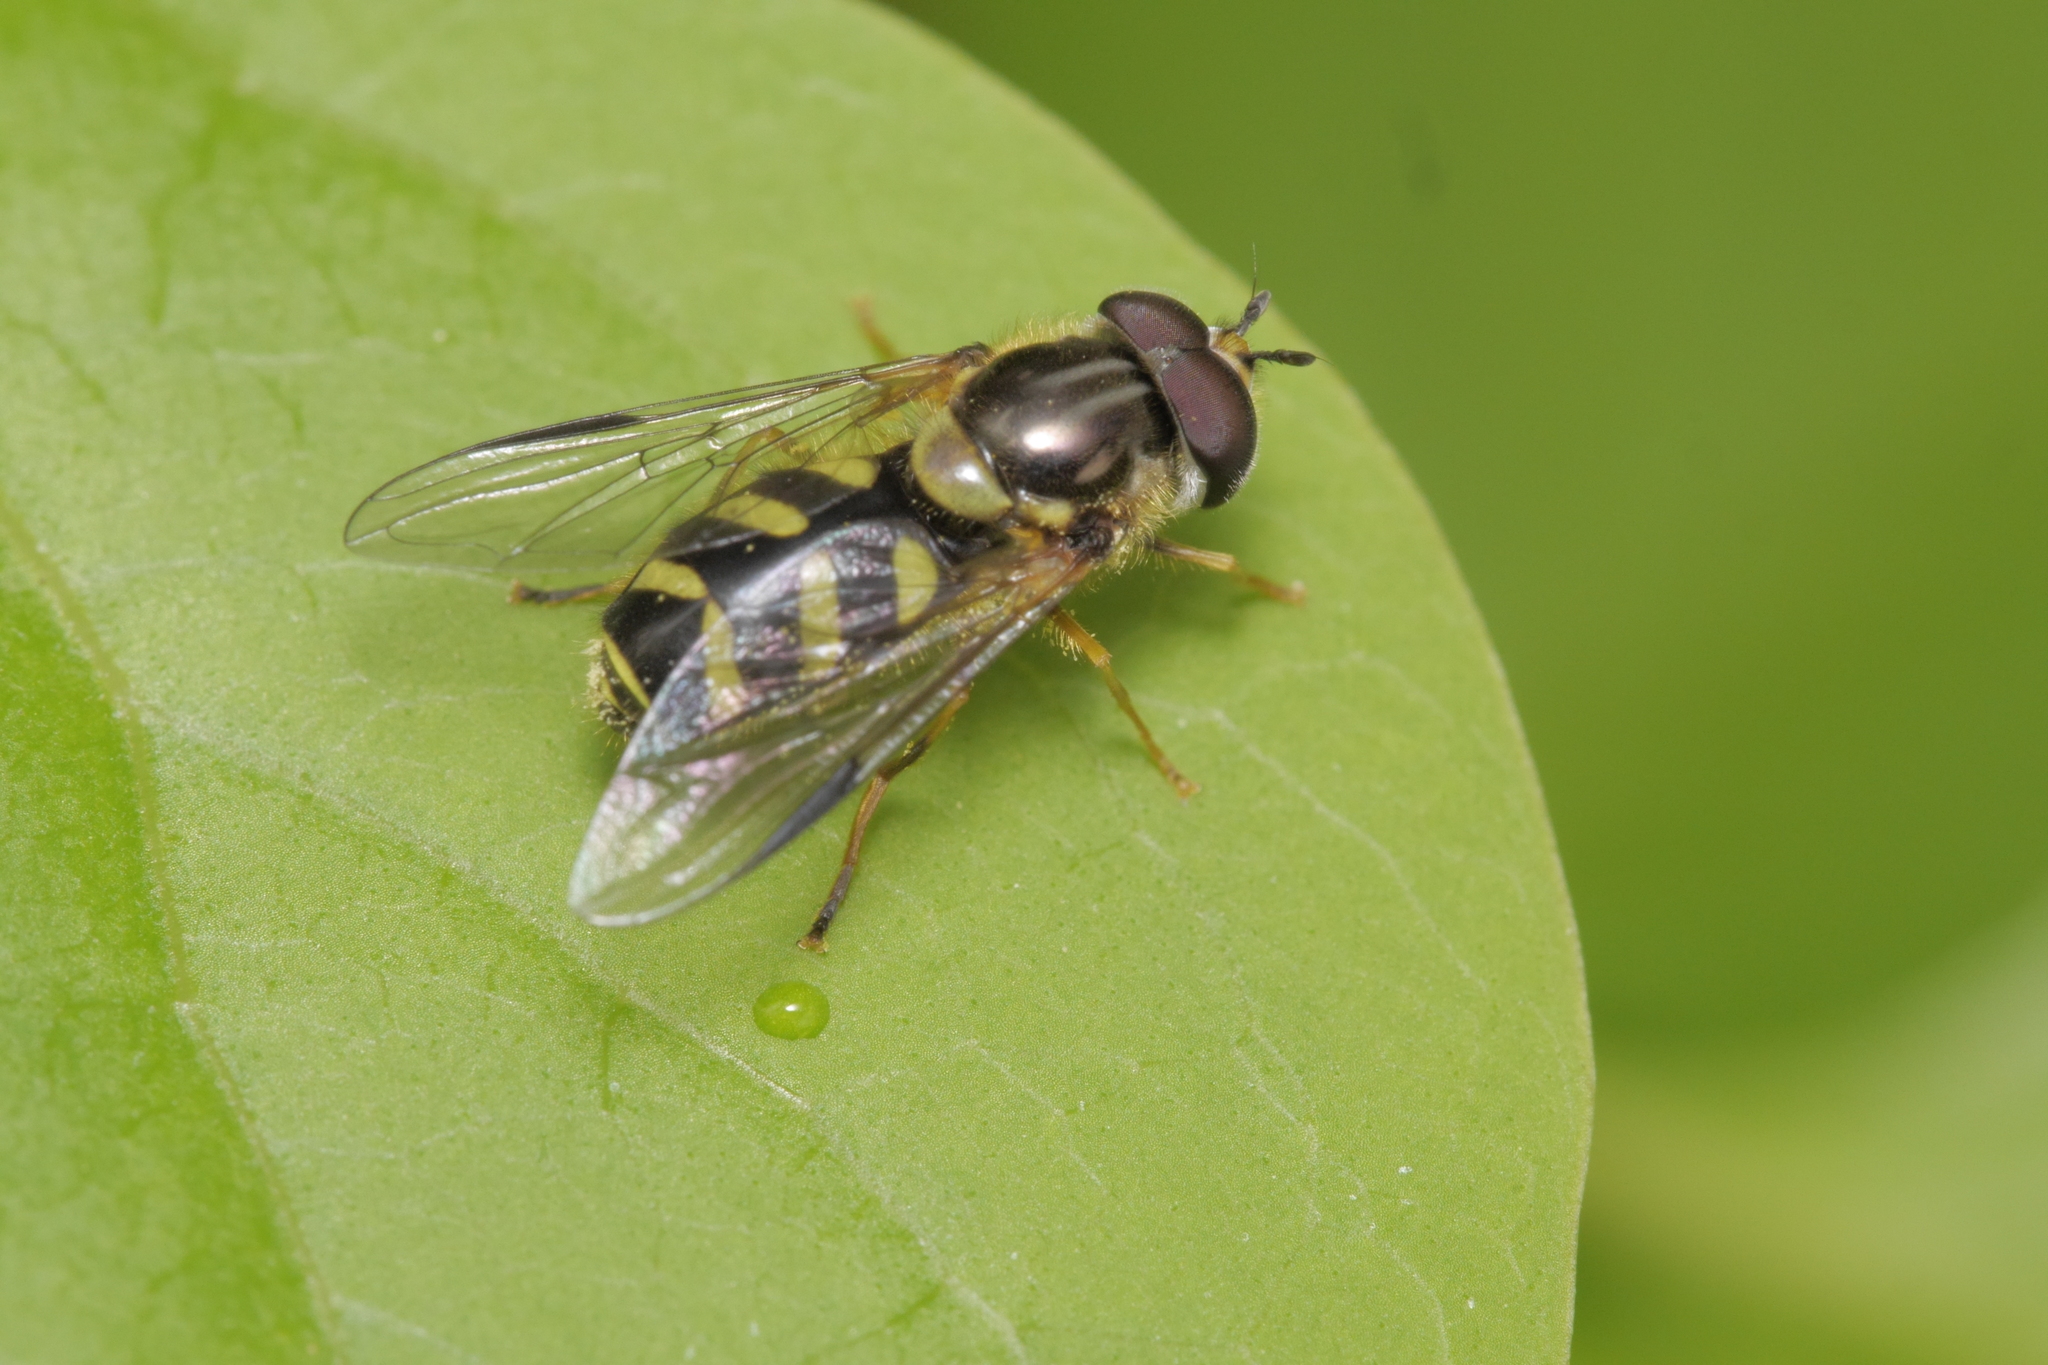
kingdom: Animalia
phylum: Arthropoda
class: Insecta
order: Diptera
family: Syrphidae
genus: Dasysyrphus
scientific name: Dasysyrphus albostriatus
